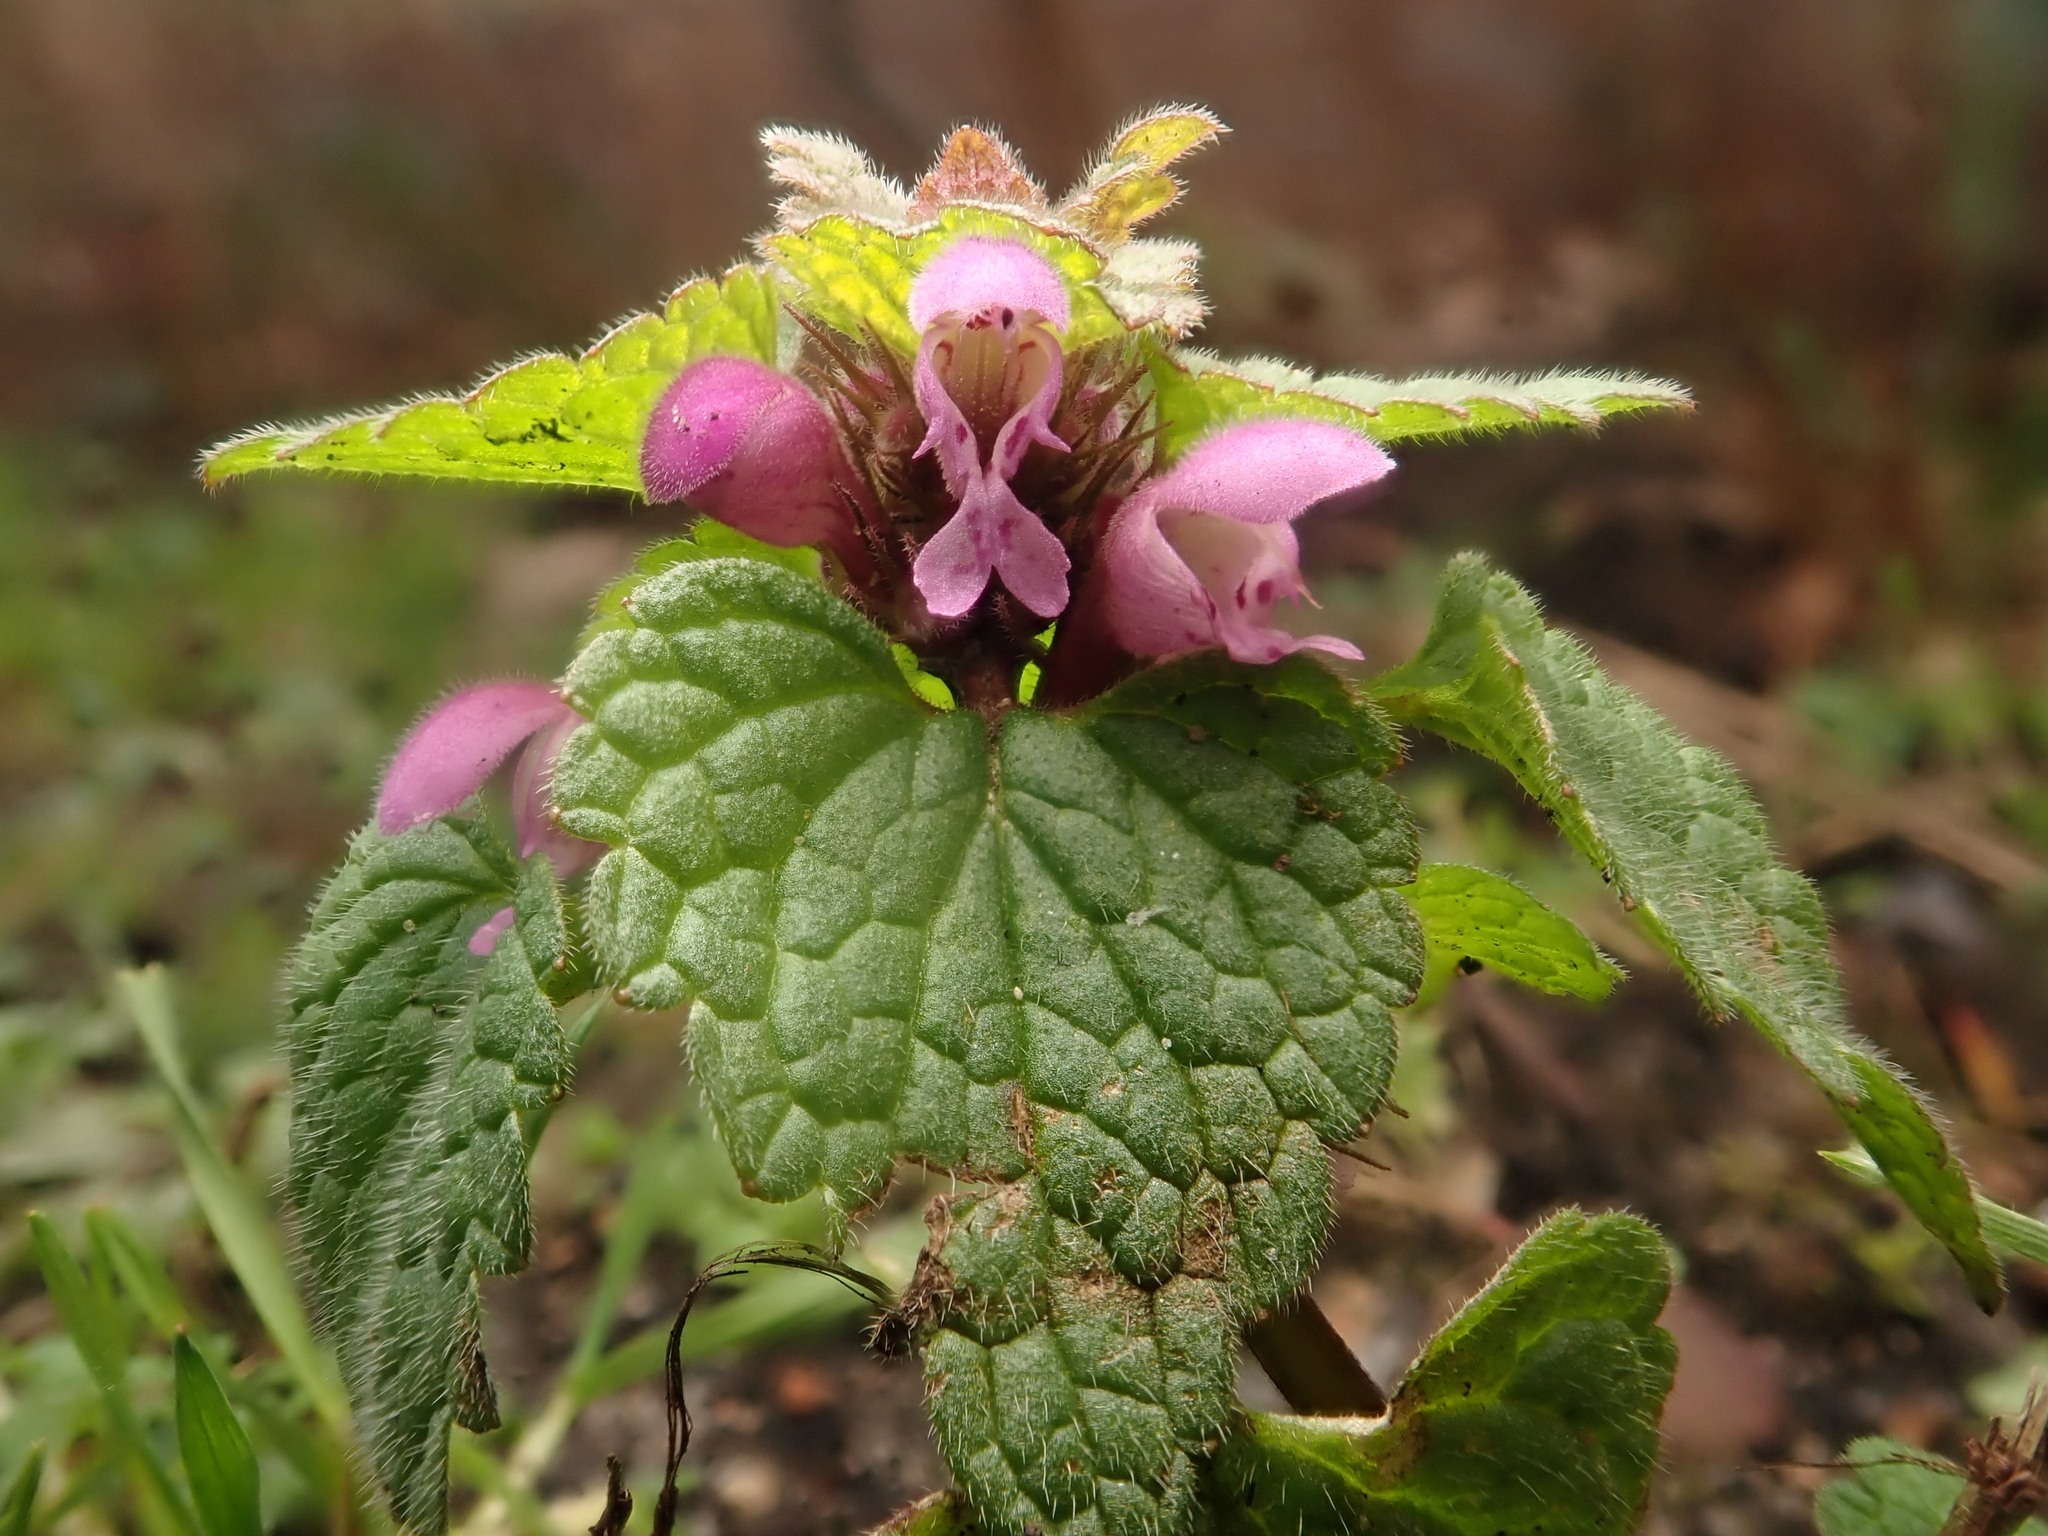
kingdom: Plantae
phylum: Tracheophyta
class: Magnoliopsida
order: Lamiales
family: Lamiaceae
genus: Lamium
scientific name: Lamium purpureum
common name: Red dead-nettle
